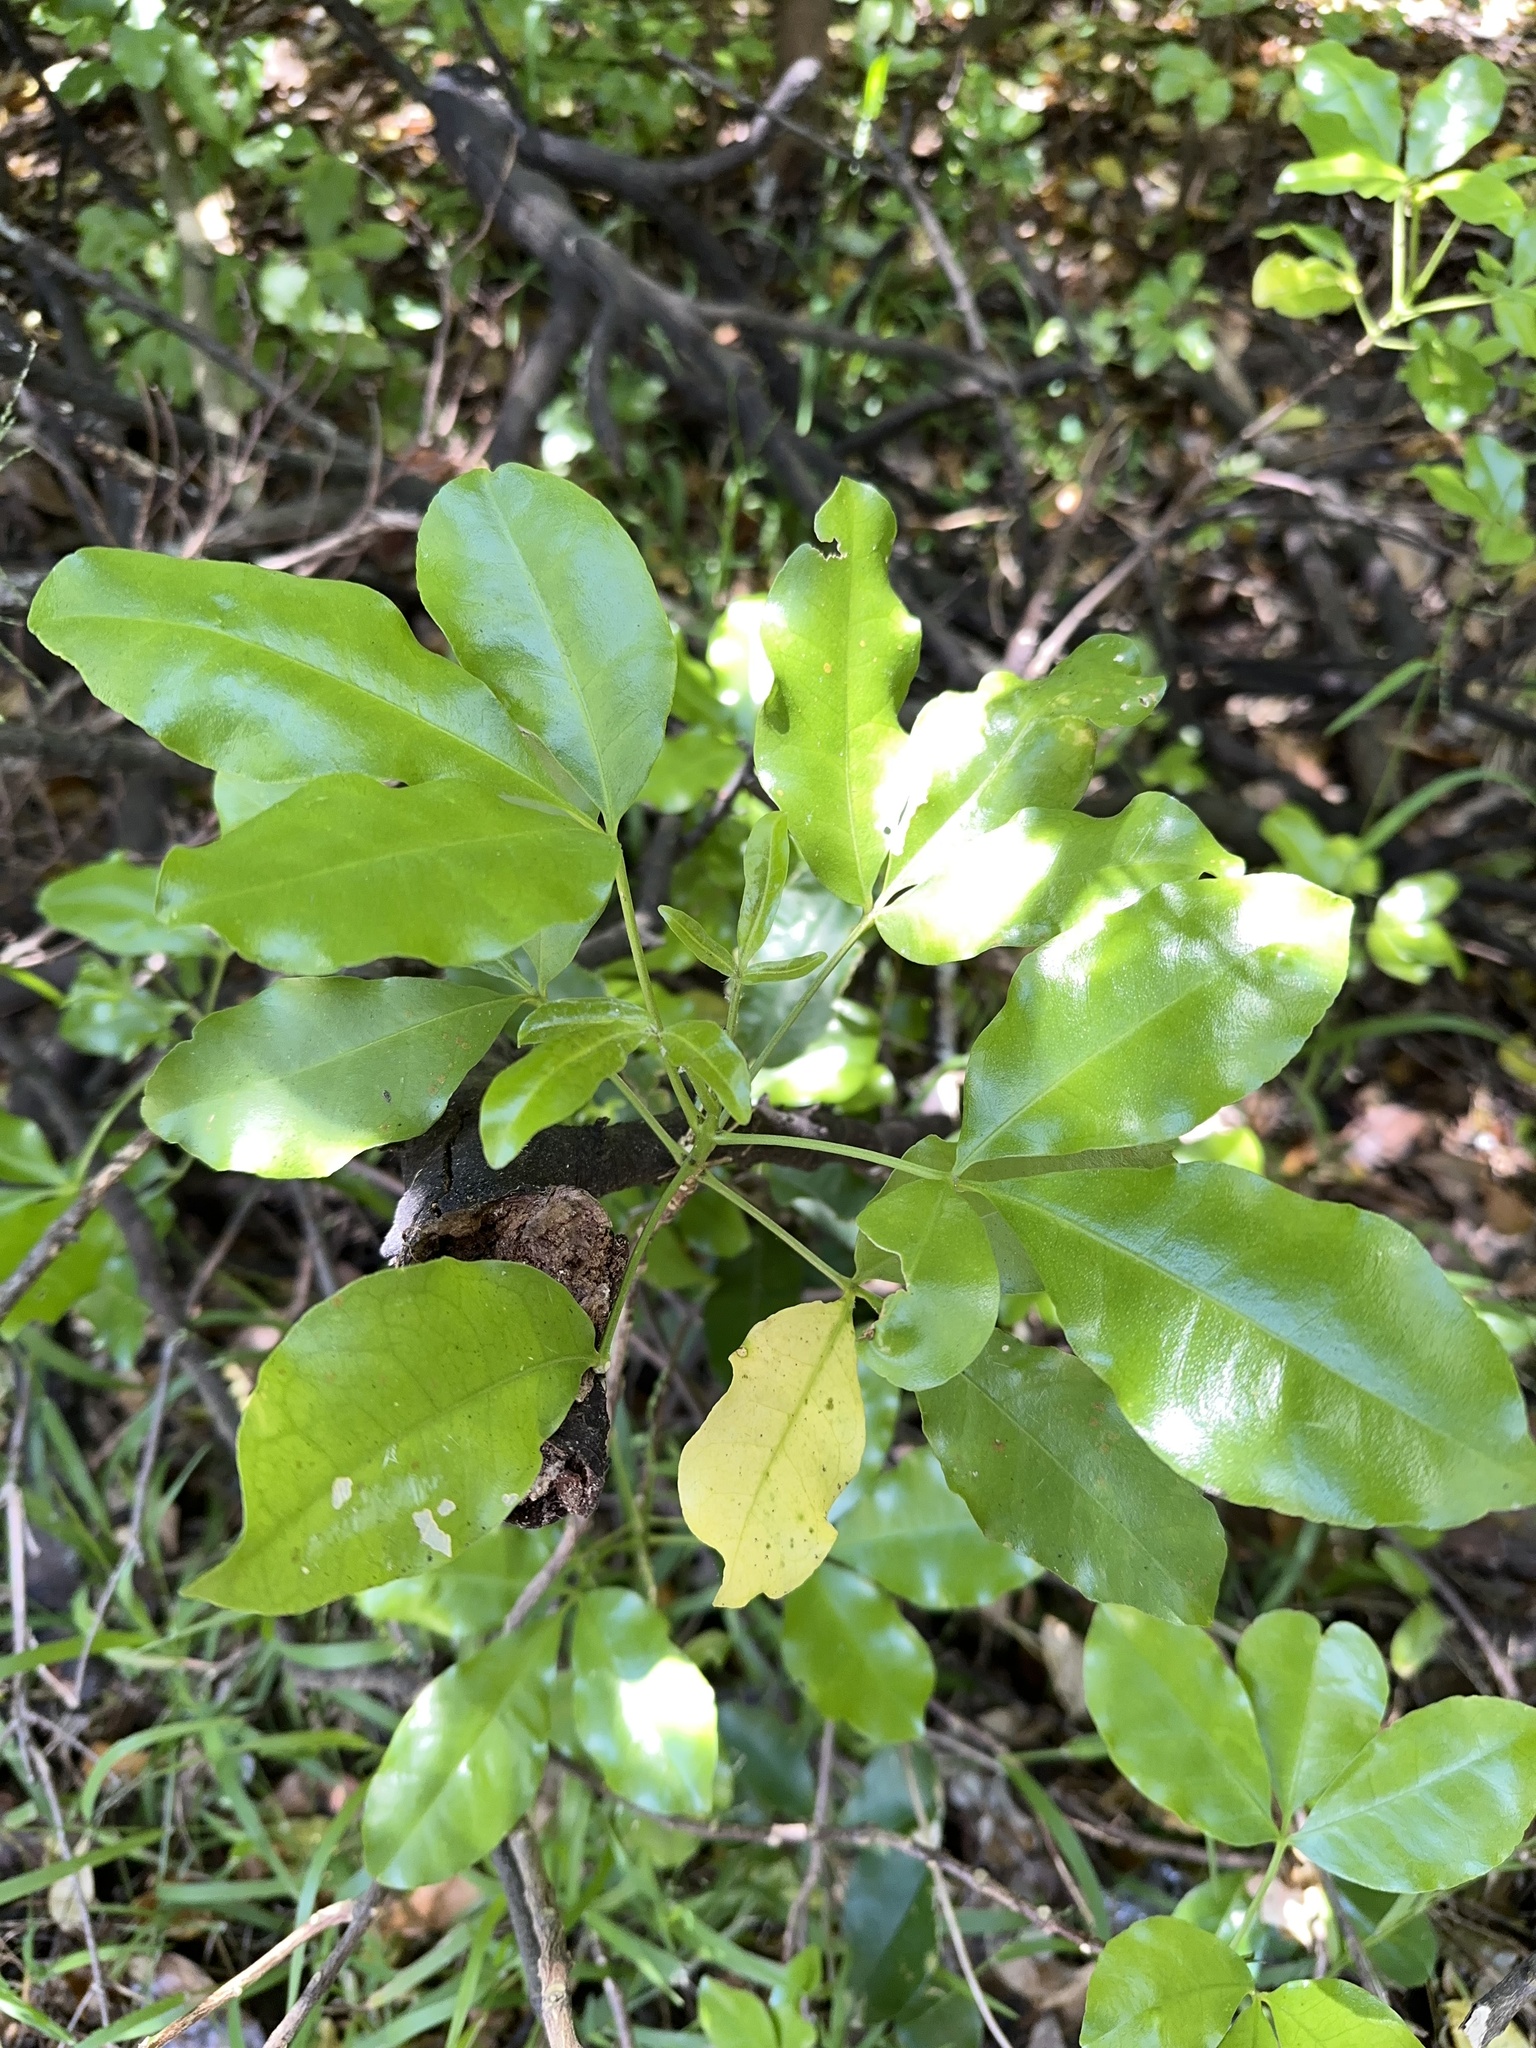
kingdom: Plantae
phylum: Tracheophyta
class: Magnoliopsida
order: Sapindales
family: Rutaceae
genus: Melicope
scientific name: Melicope ternata
